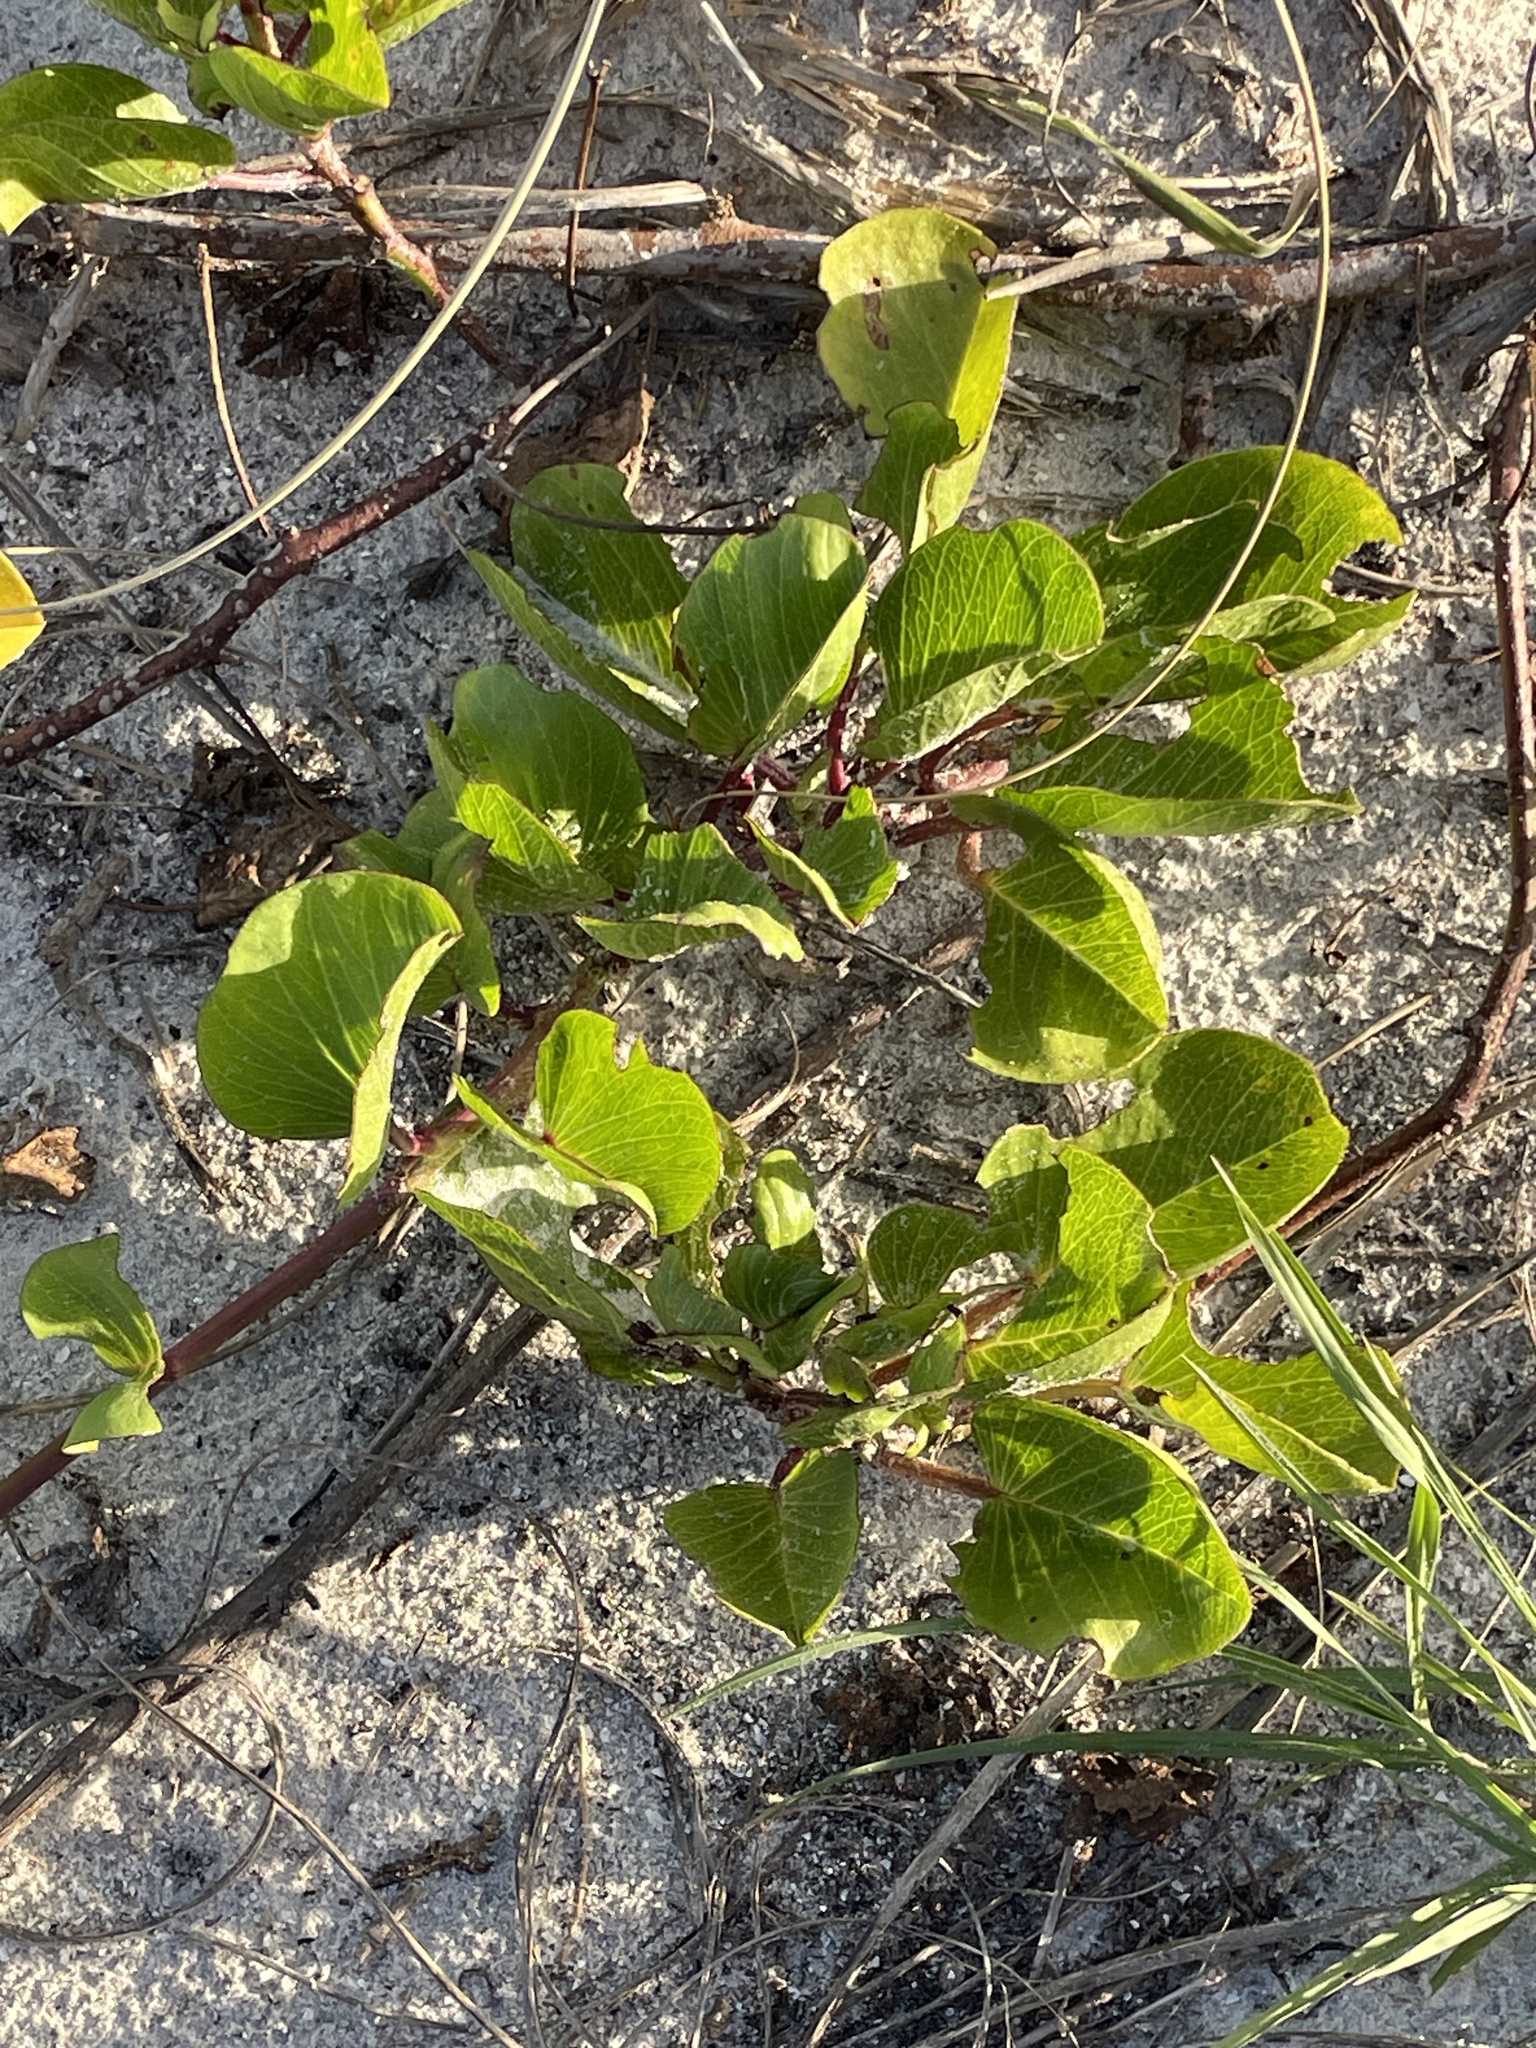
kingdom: Plantae
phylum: Tracheophyta
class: Magnoliopsida
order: Solanales
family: Convolvulaceae
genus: Ipomoea
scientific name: Ipomoea pes-caprae
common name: Beach morning glory
